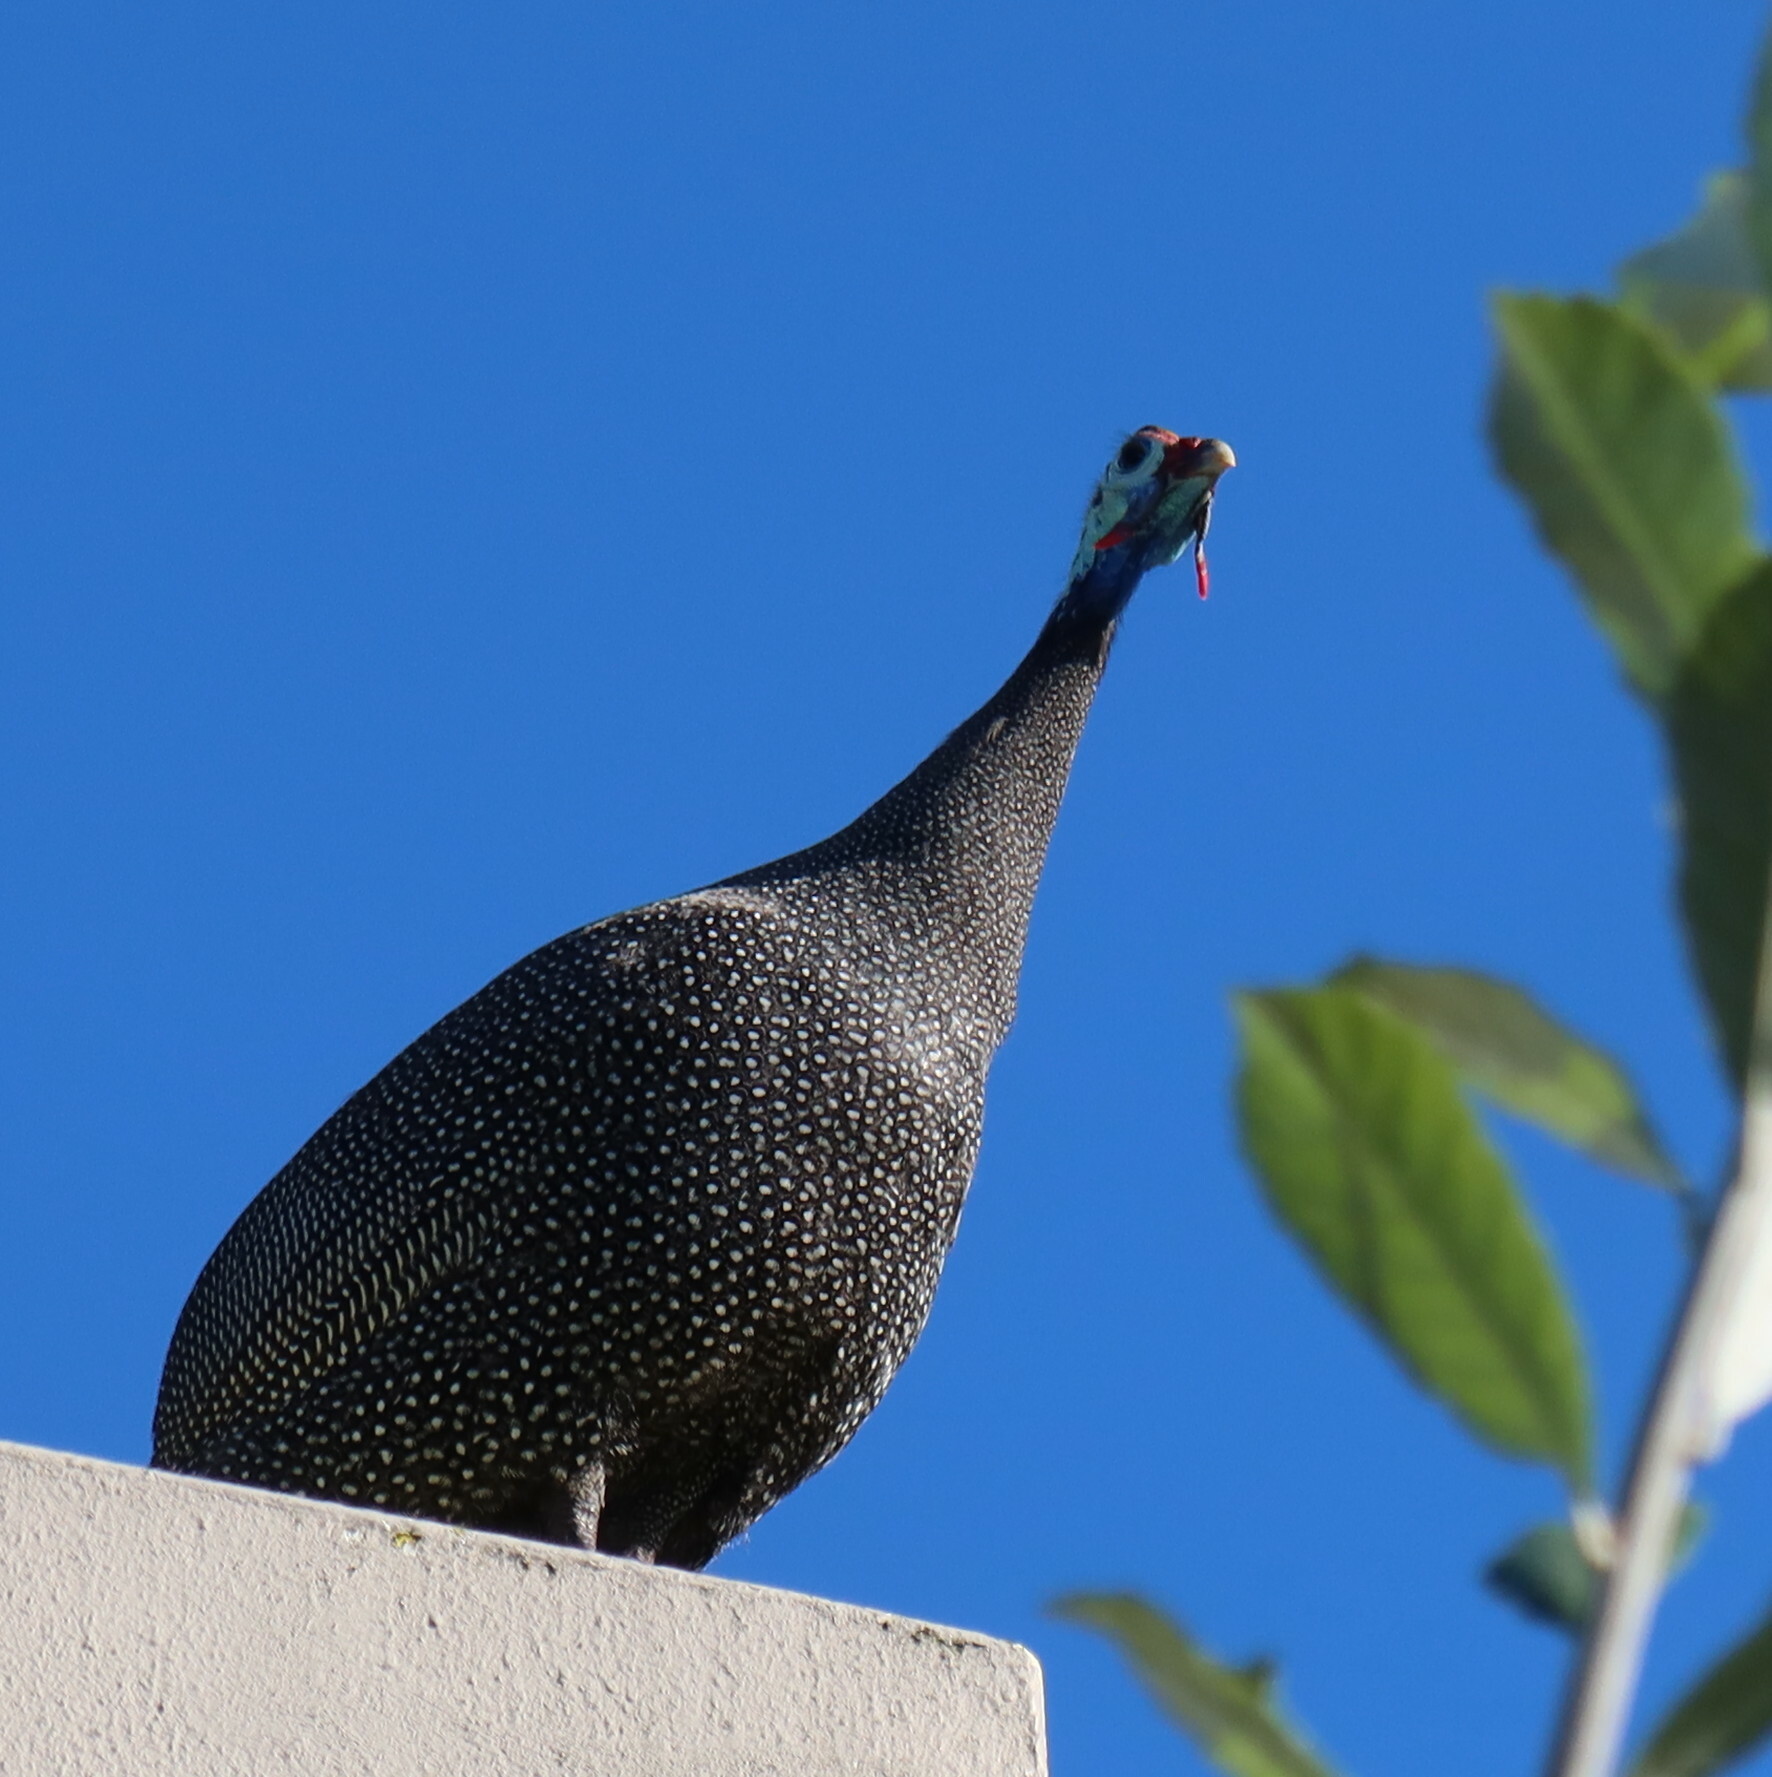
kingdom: Animalia
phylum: Chordata
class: Aves
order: Galliformes
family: Numididae
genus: Numida
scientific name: Numida meleagris
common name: Helmeted guineafowl
